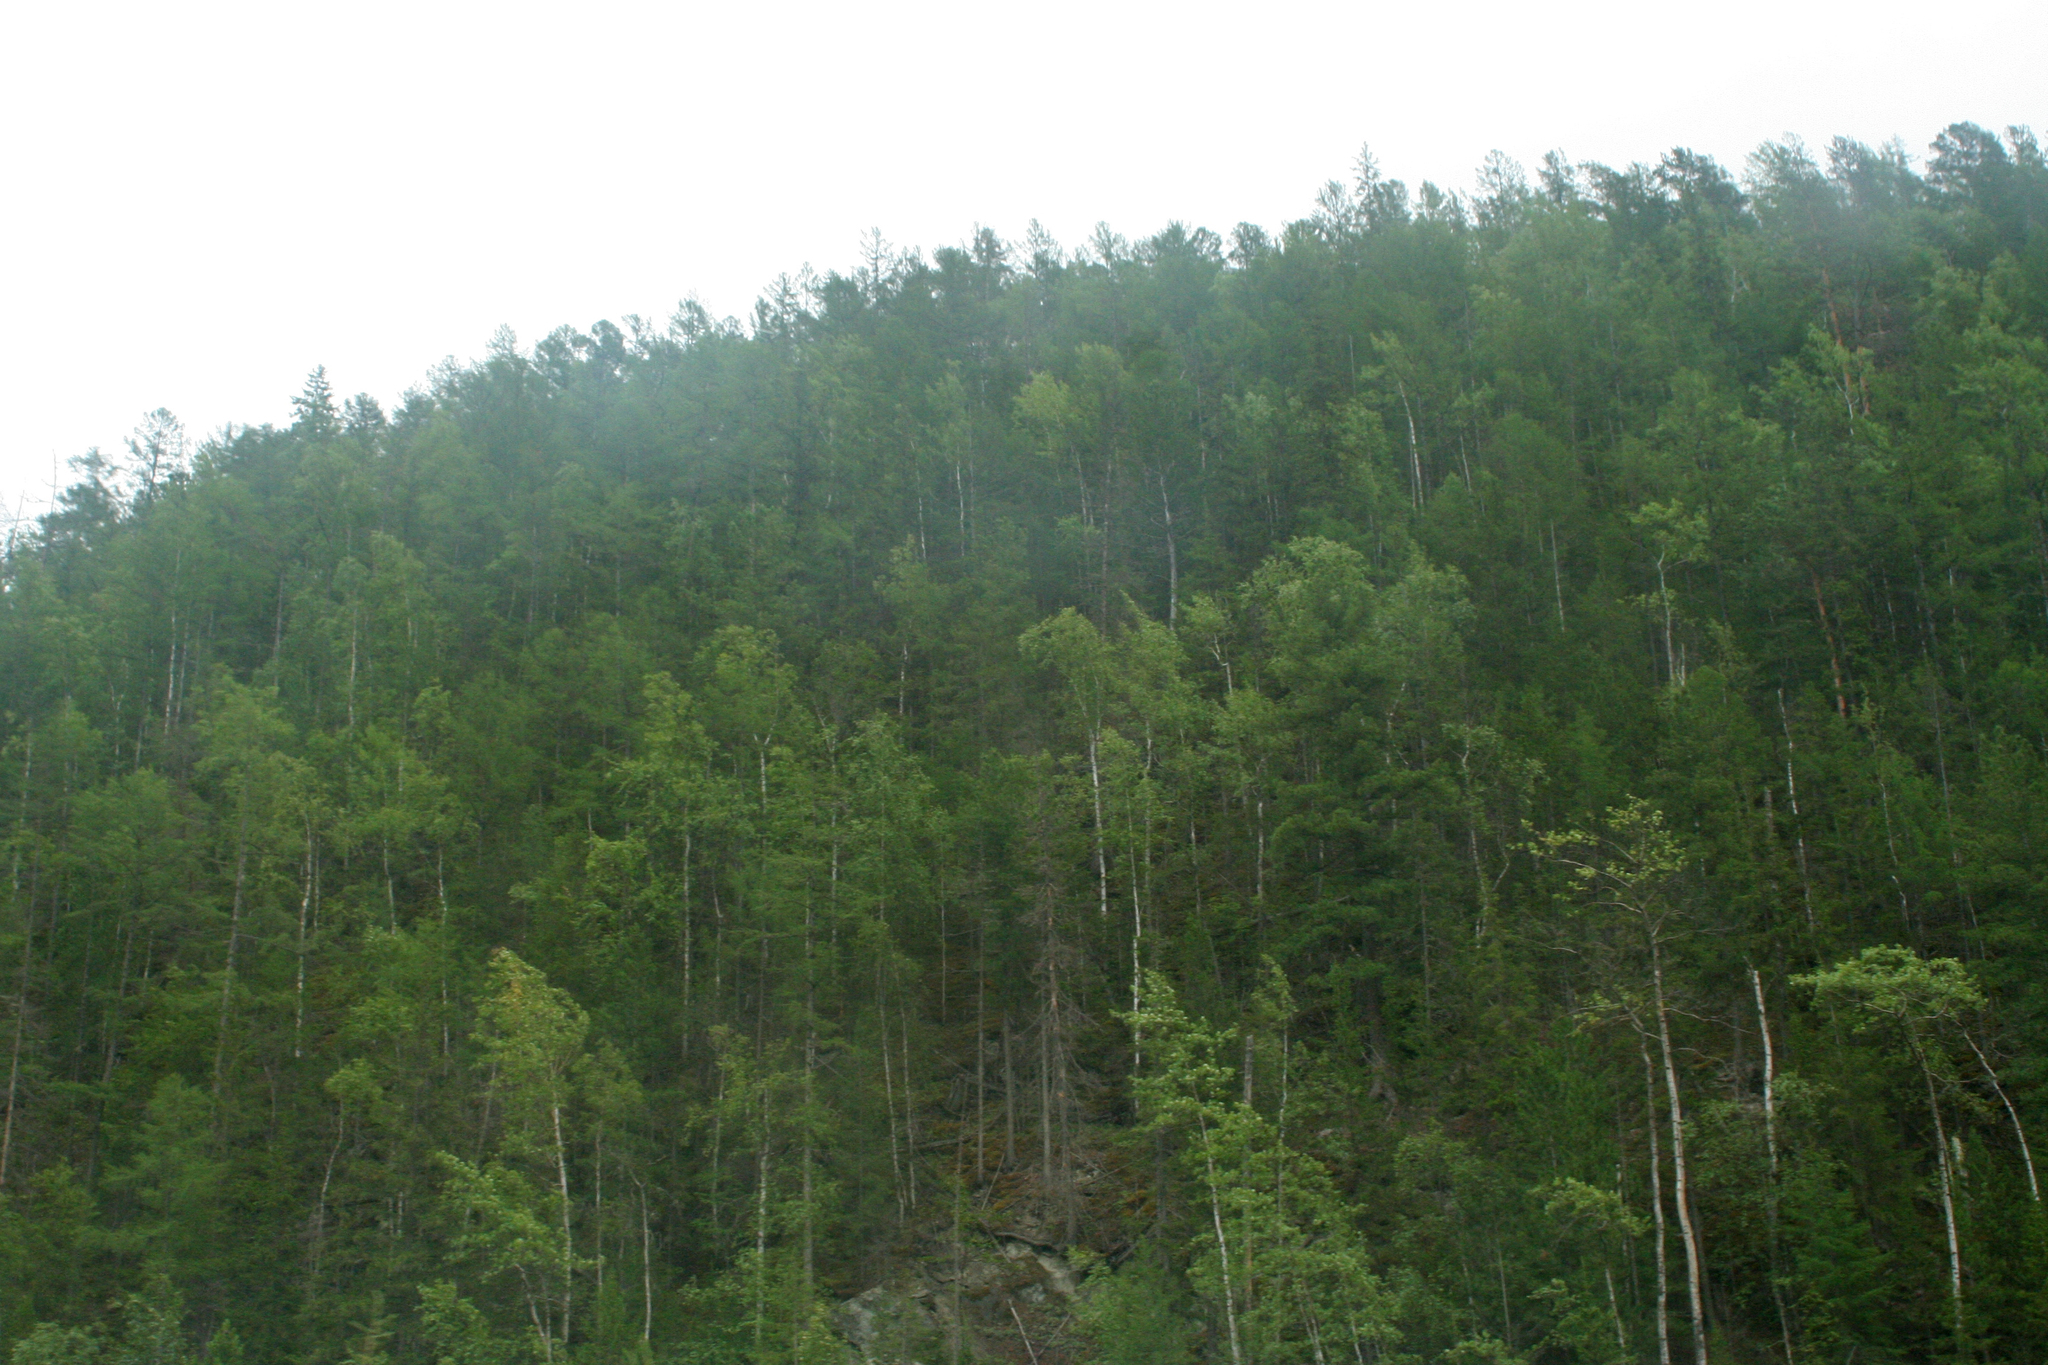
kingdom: Plantae
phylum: Tracheophyta
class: Magnoliopsida
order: Malpighiales
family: Salicaceae
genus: Populus
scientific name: Populus tremula
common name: European aspen
